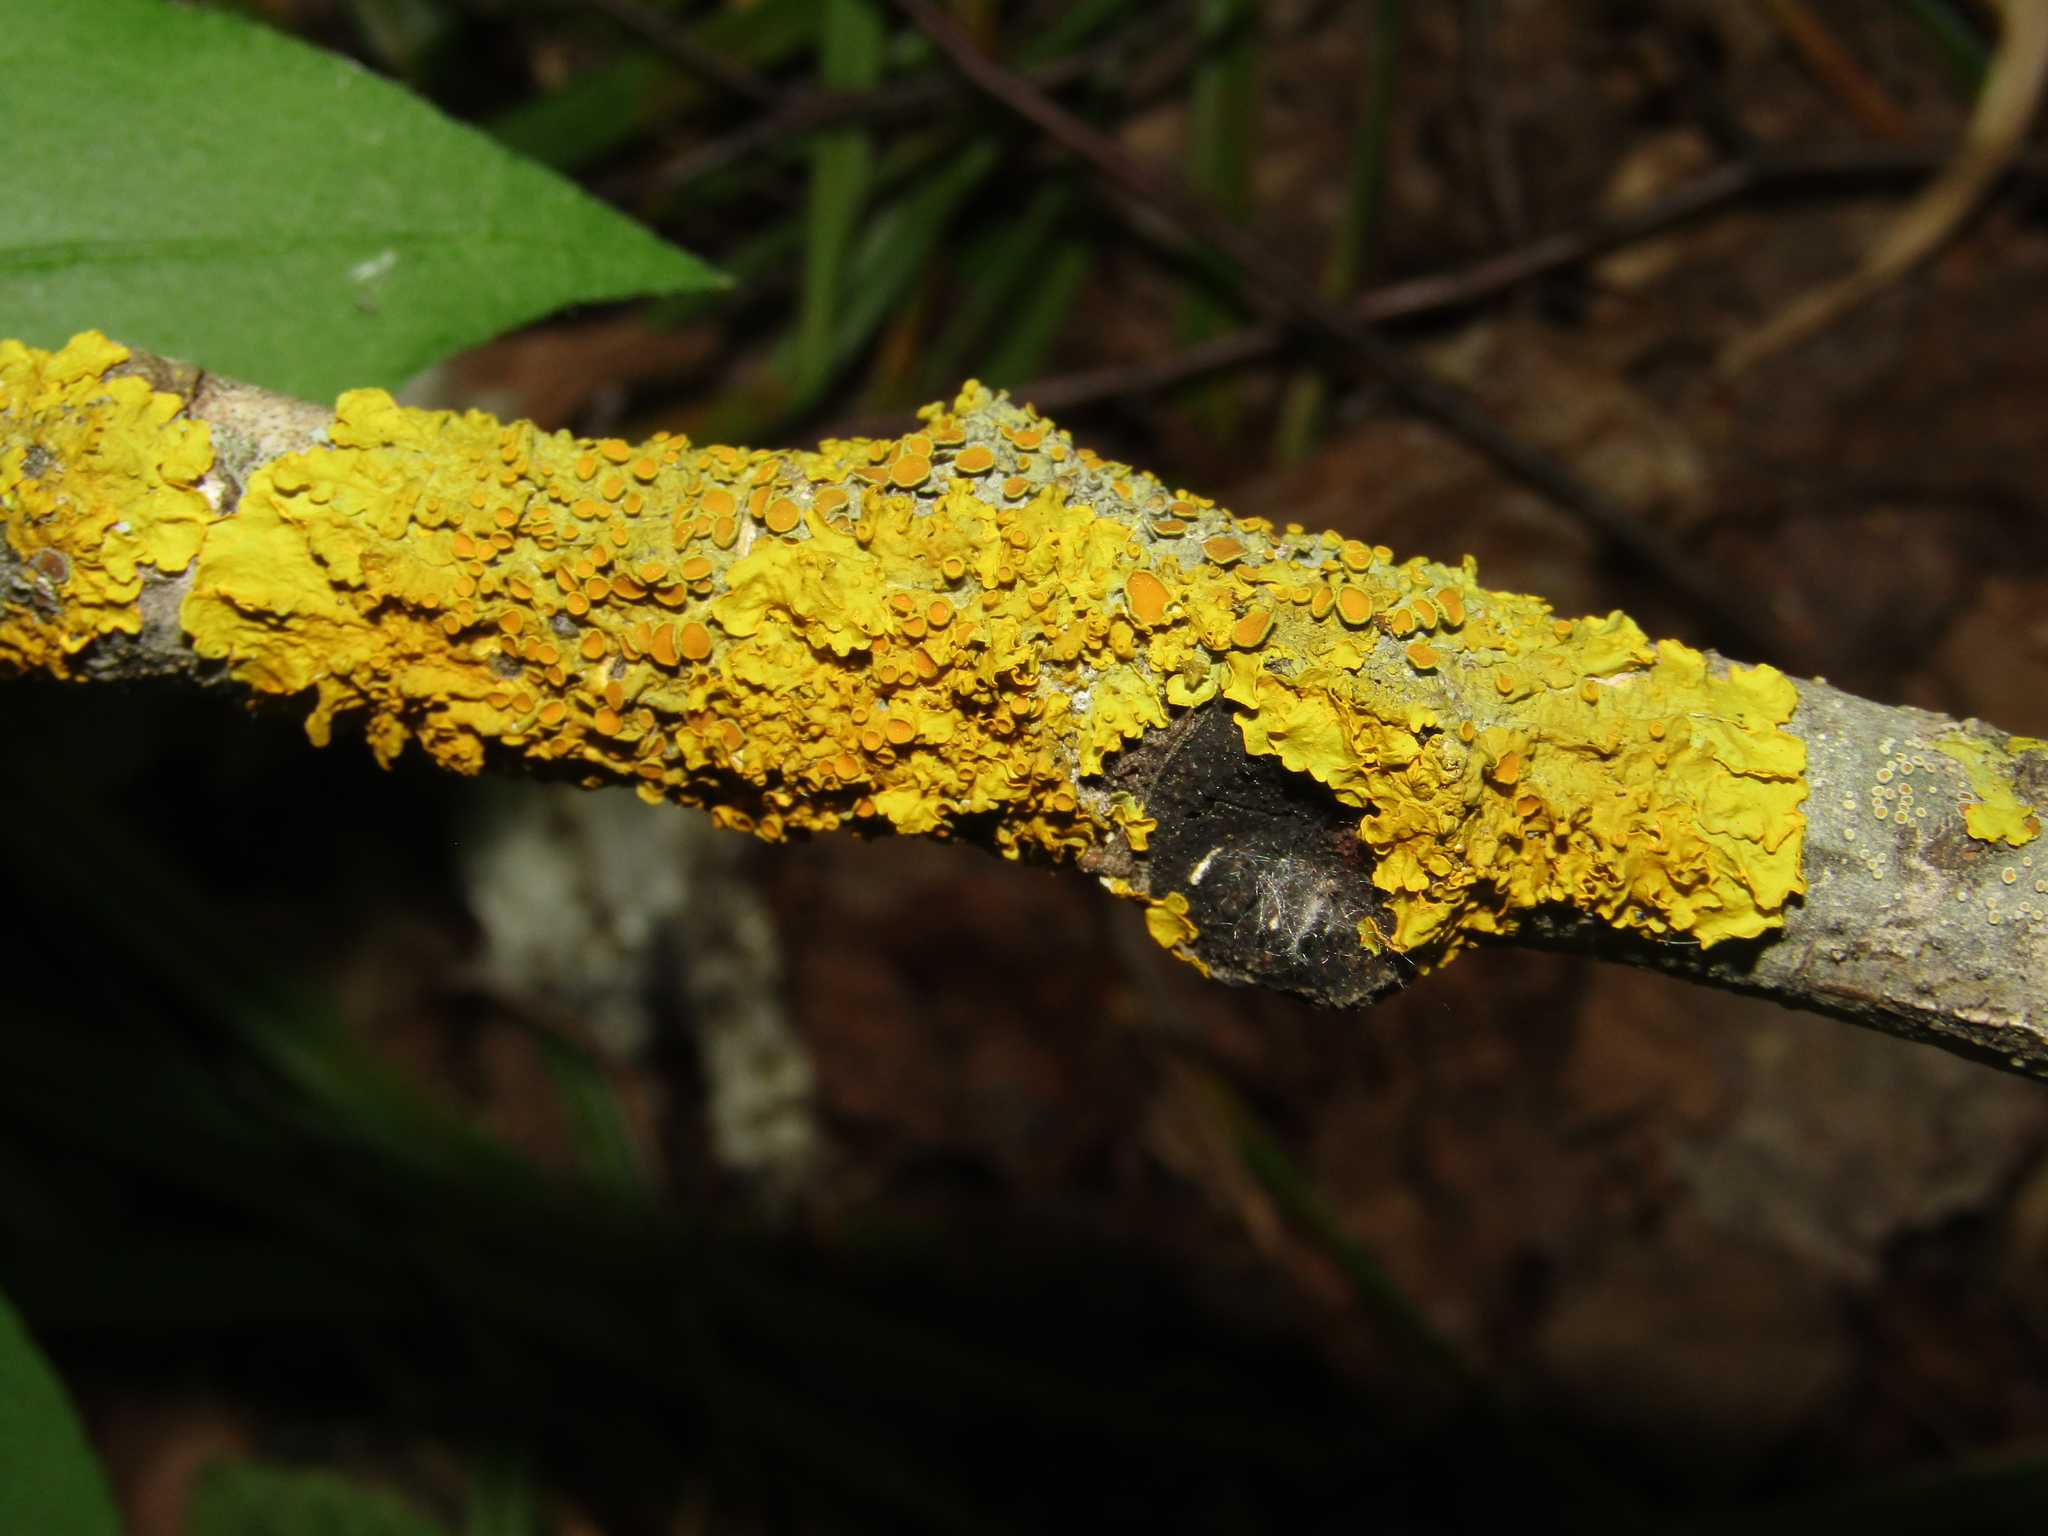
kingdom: Fungi
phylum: Ascomycota
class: Lecanoromycetes
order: Teloschistales
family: Teloschistaceae
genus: Xanthoria
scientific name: Xanthoria parietina
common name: Common orange lichen
